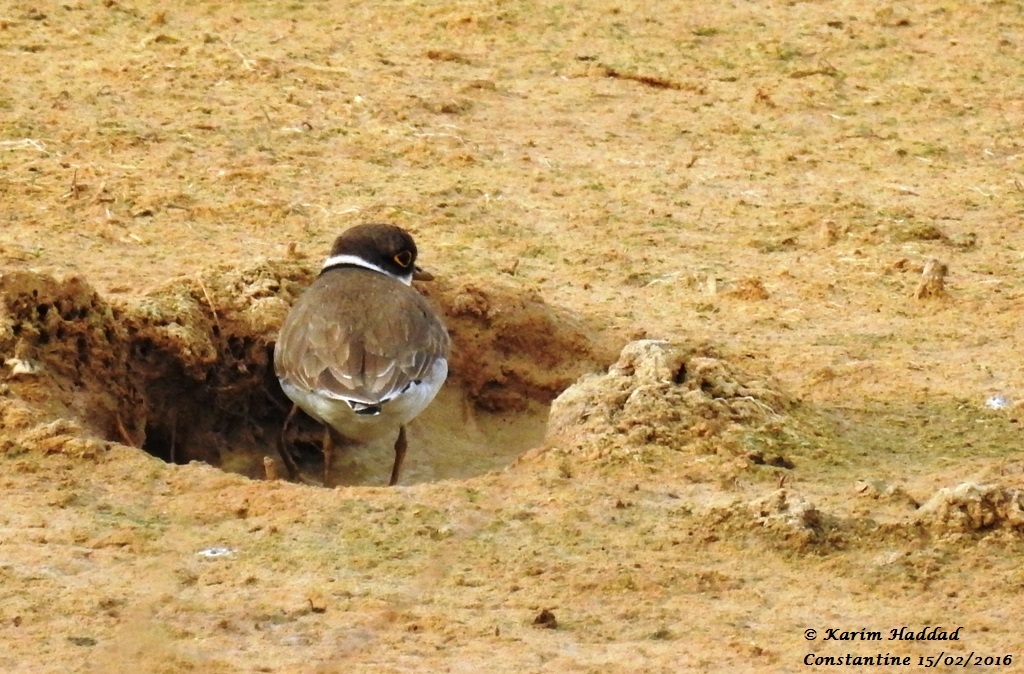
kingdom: Animalia
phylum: Chordata
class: Aves
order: Charadriiformes
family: Charadriidae
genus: Charadrius
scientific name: Charadrius dubius
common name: Little ringed plover
